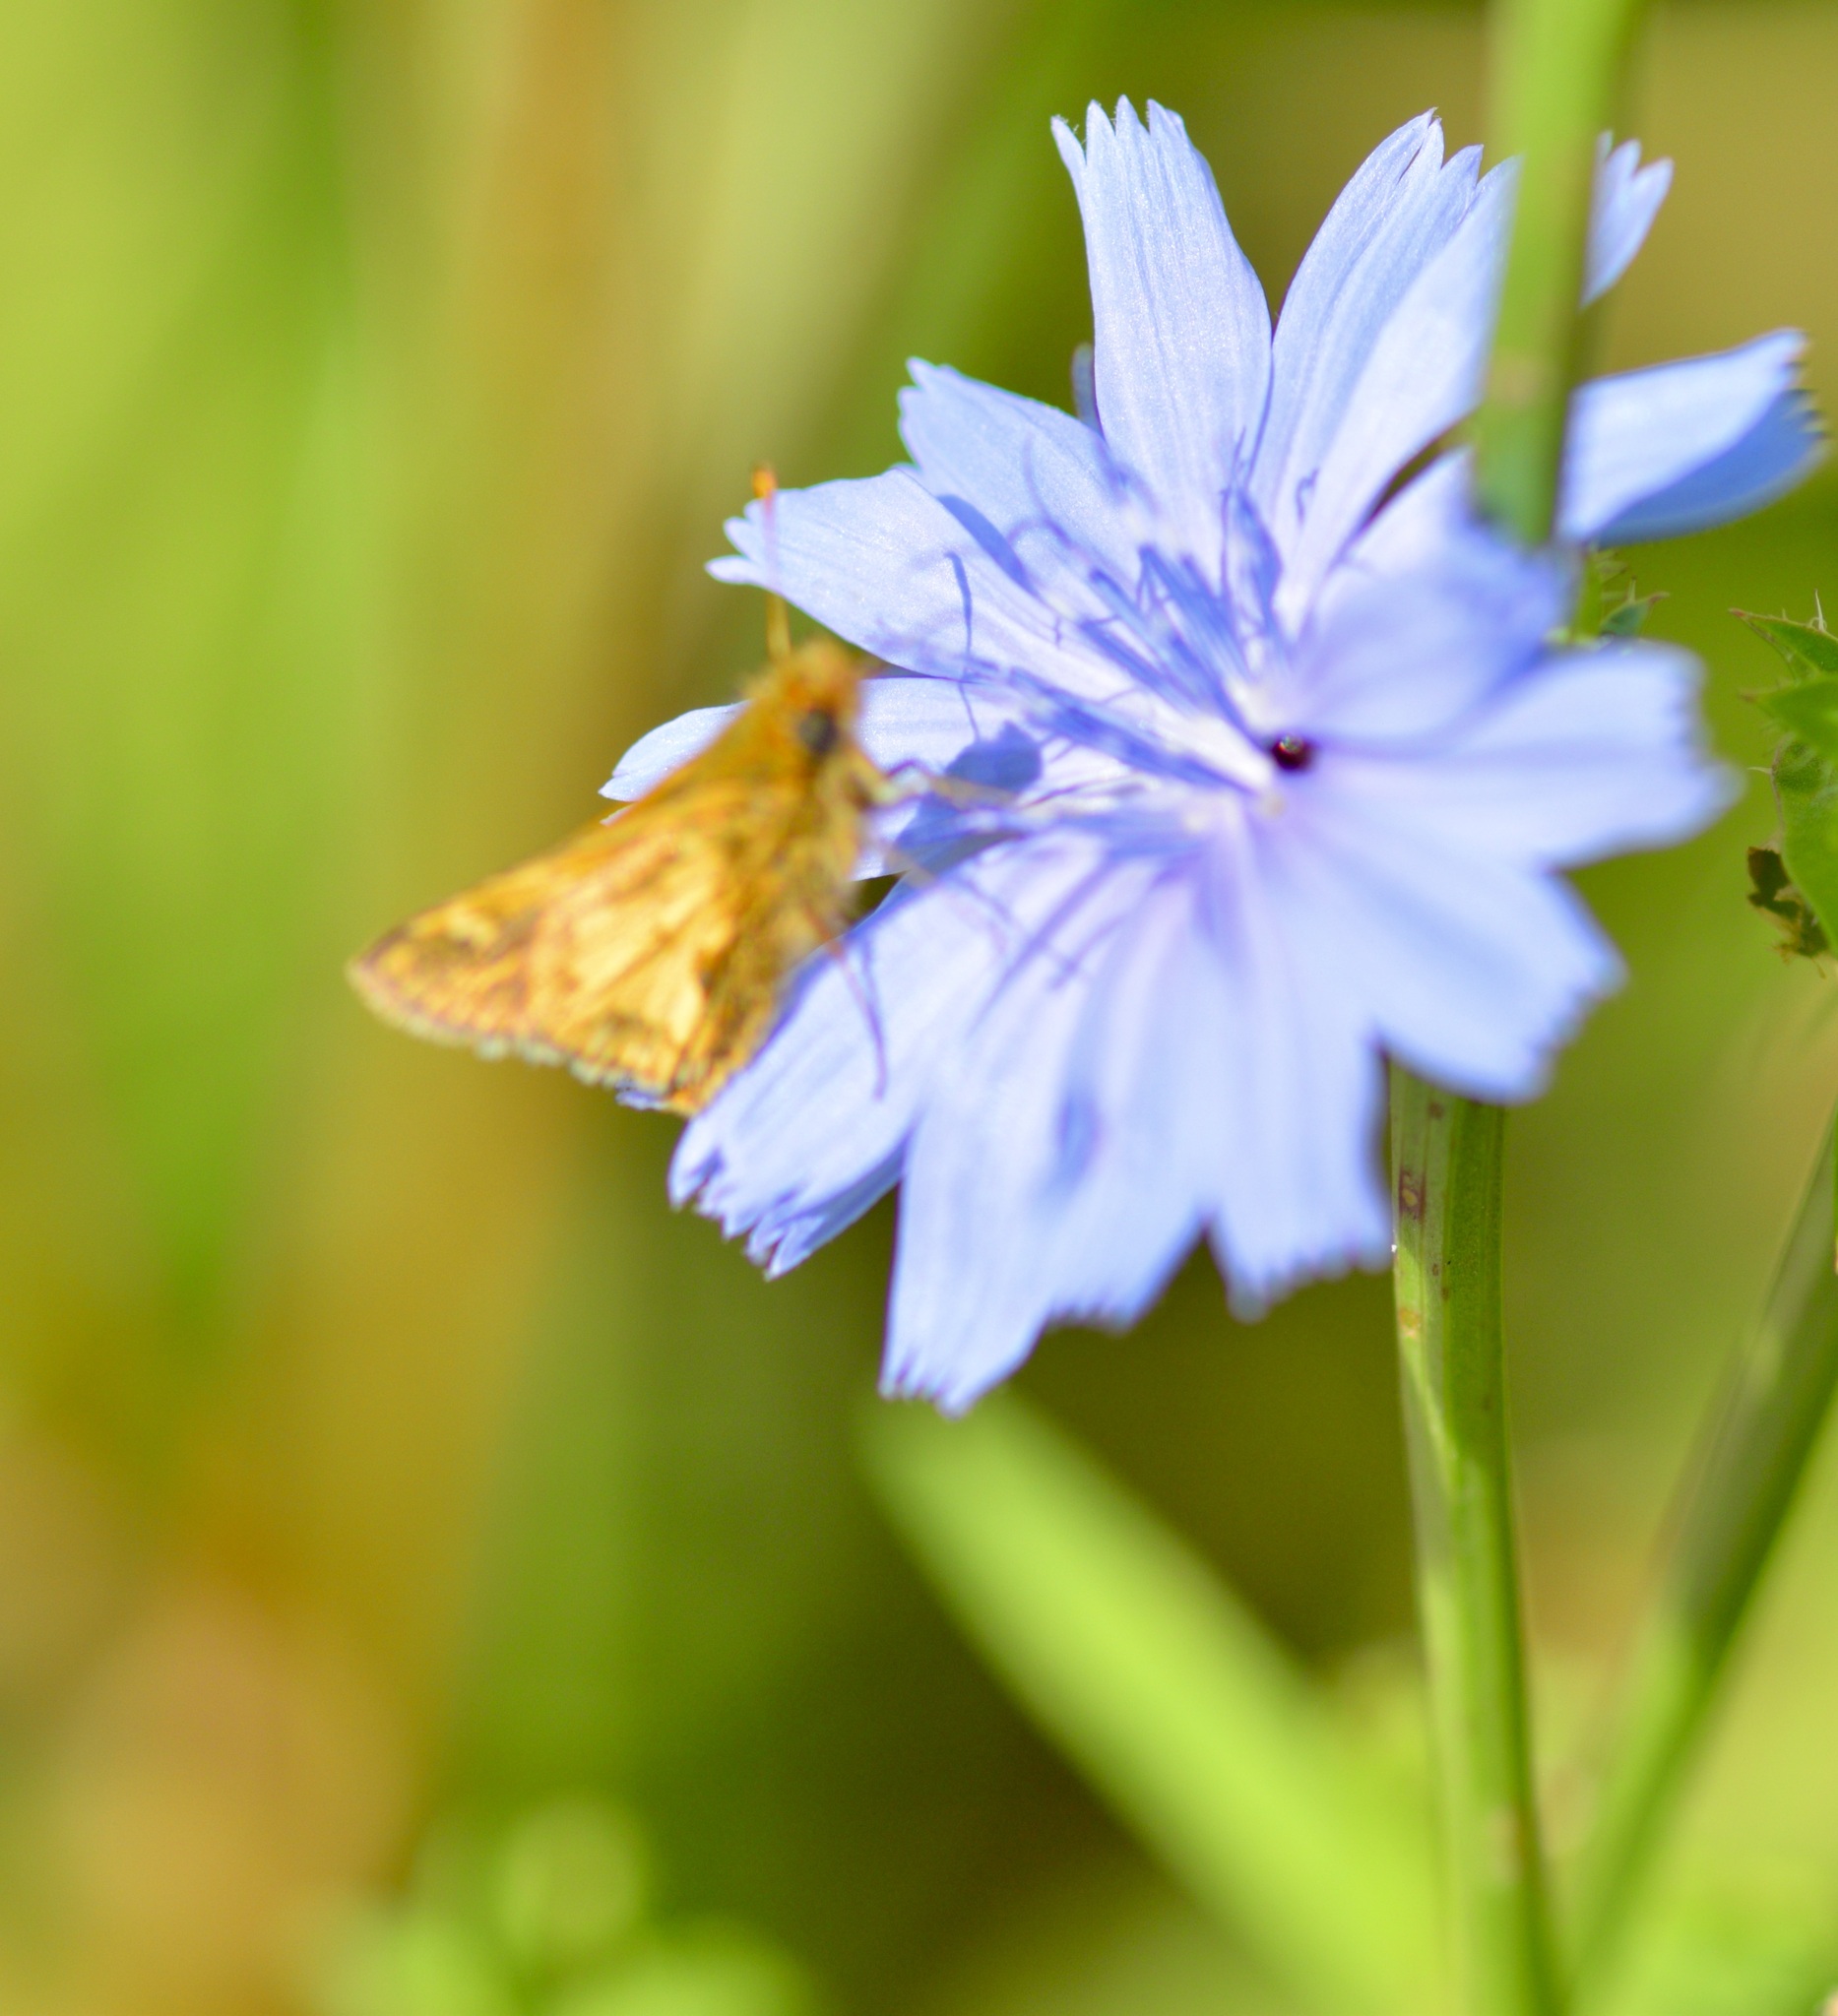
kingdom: Animalia
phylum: Arthropoda
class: Insecta
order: Lepidoptera
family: Hesperiidae
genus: Polites
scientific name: Polites coras
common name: Peck's skipper
